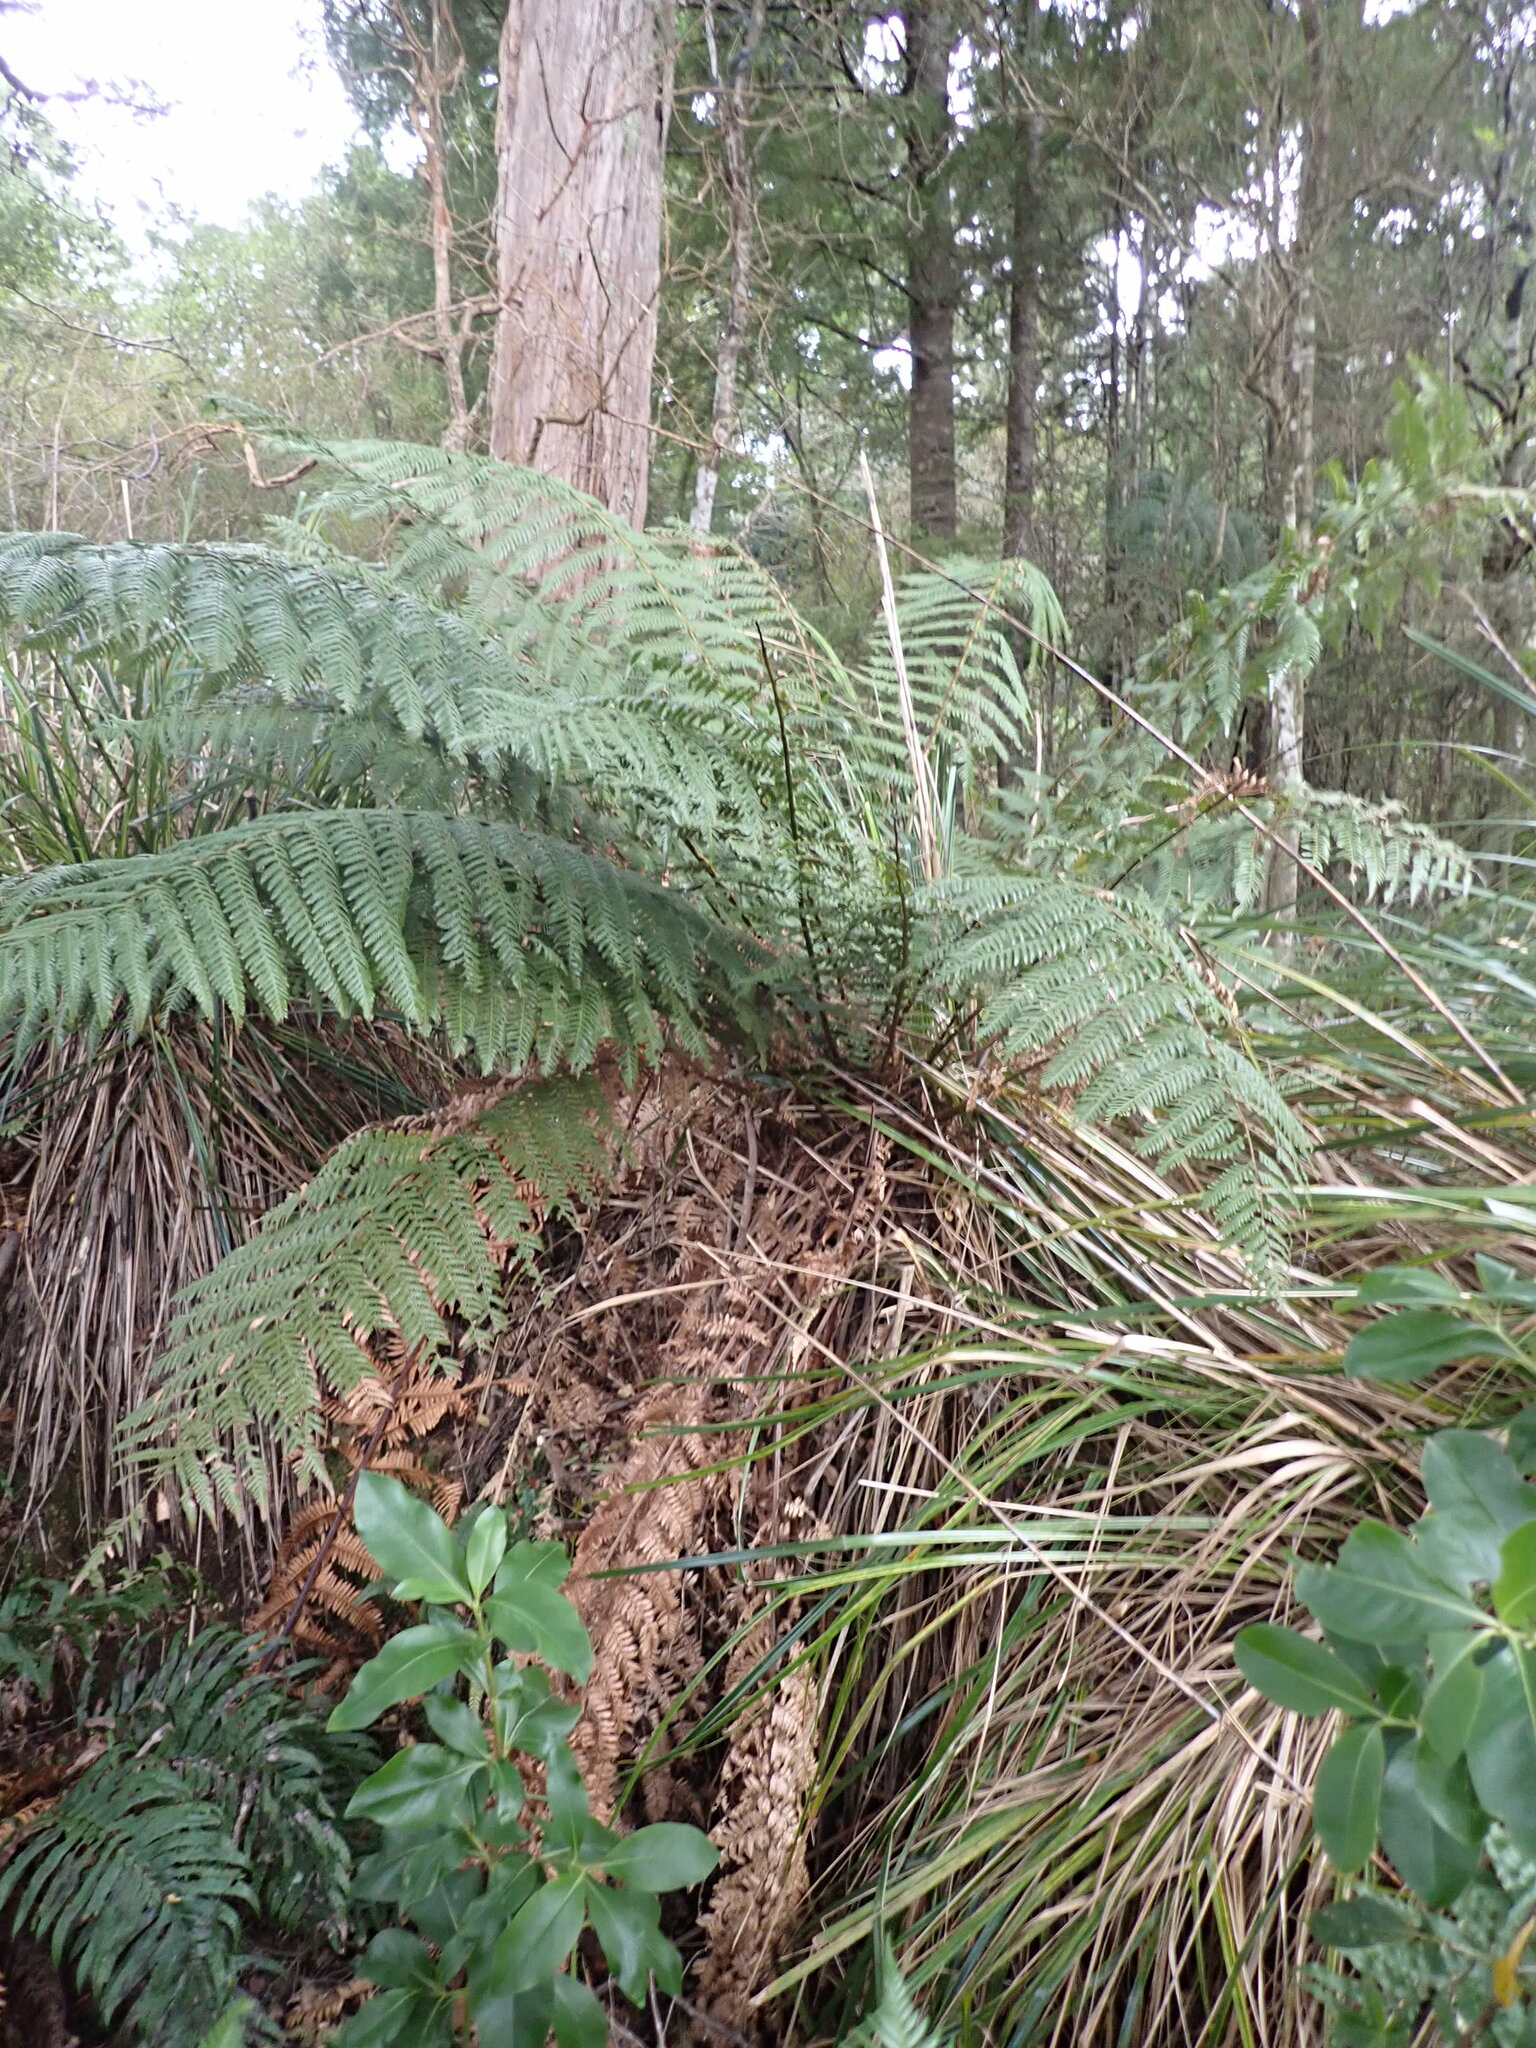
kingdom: Plantae
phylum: Tracheophyta
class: Polypodiopsida
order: Cyatheales
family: Dicksoniaceae
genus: Dicksonia
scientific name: Dicksonia fibrosa
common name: Golden tree fern
